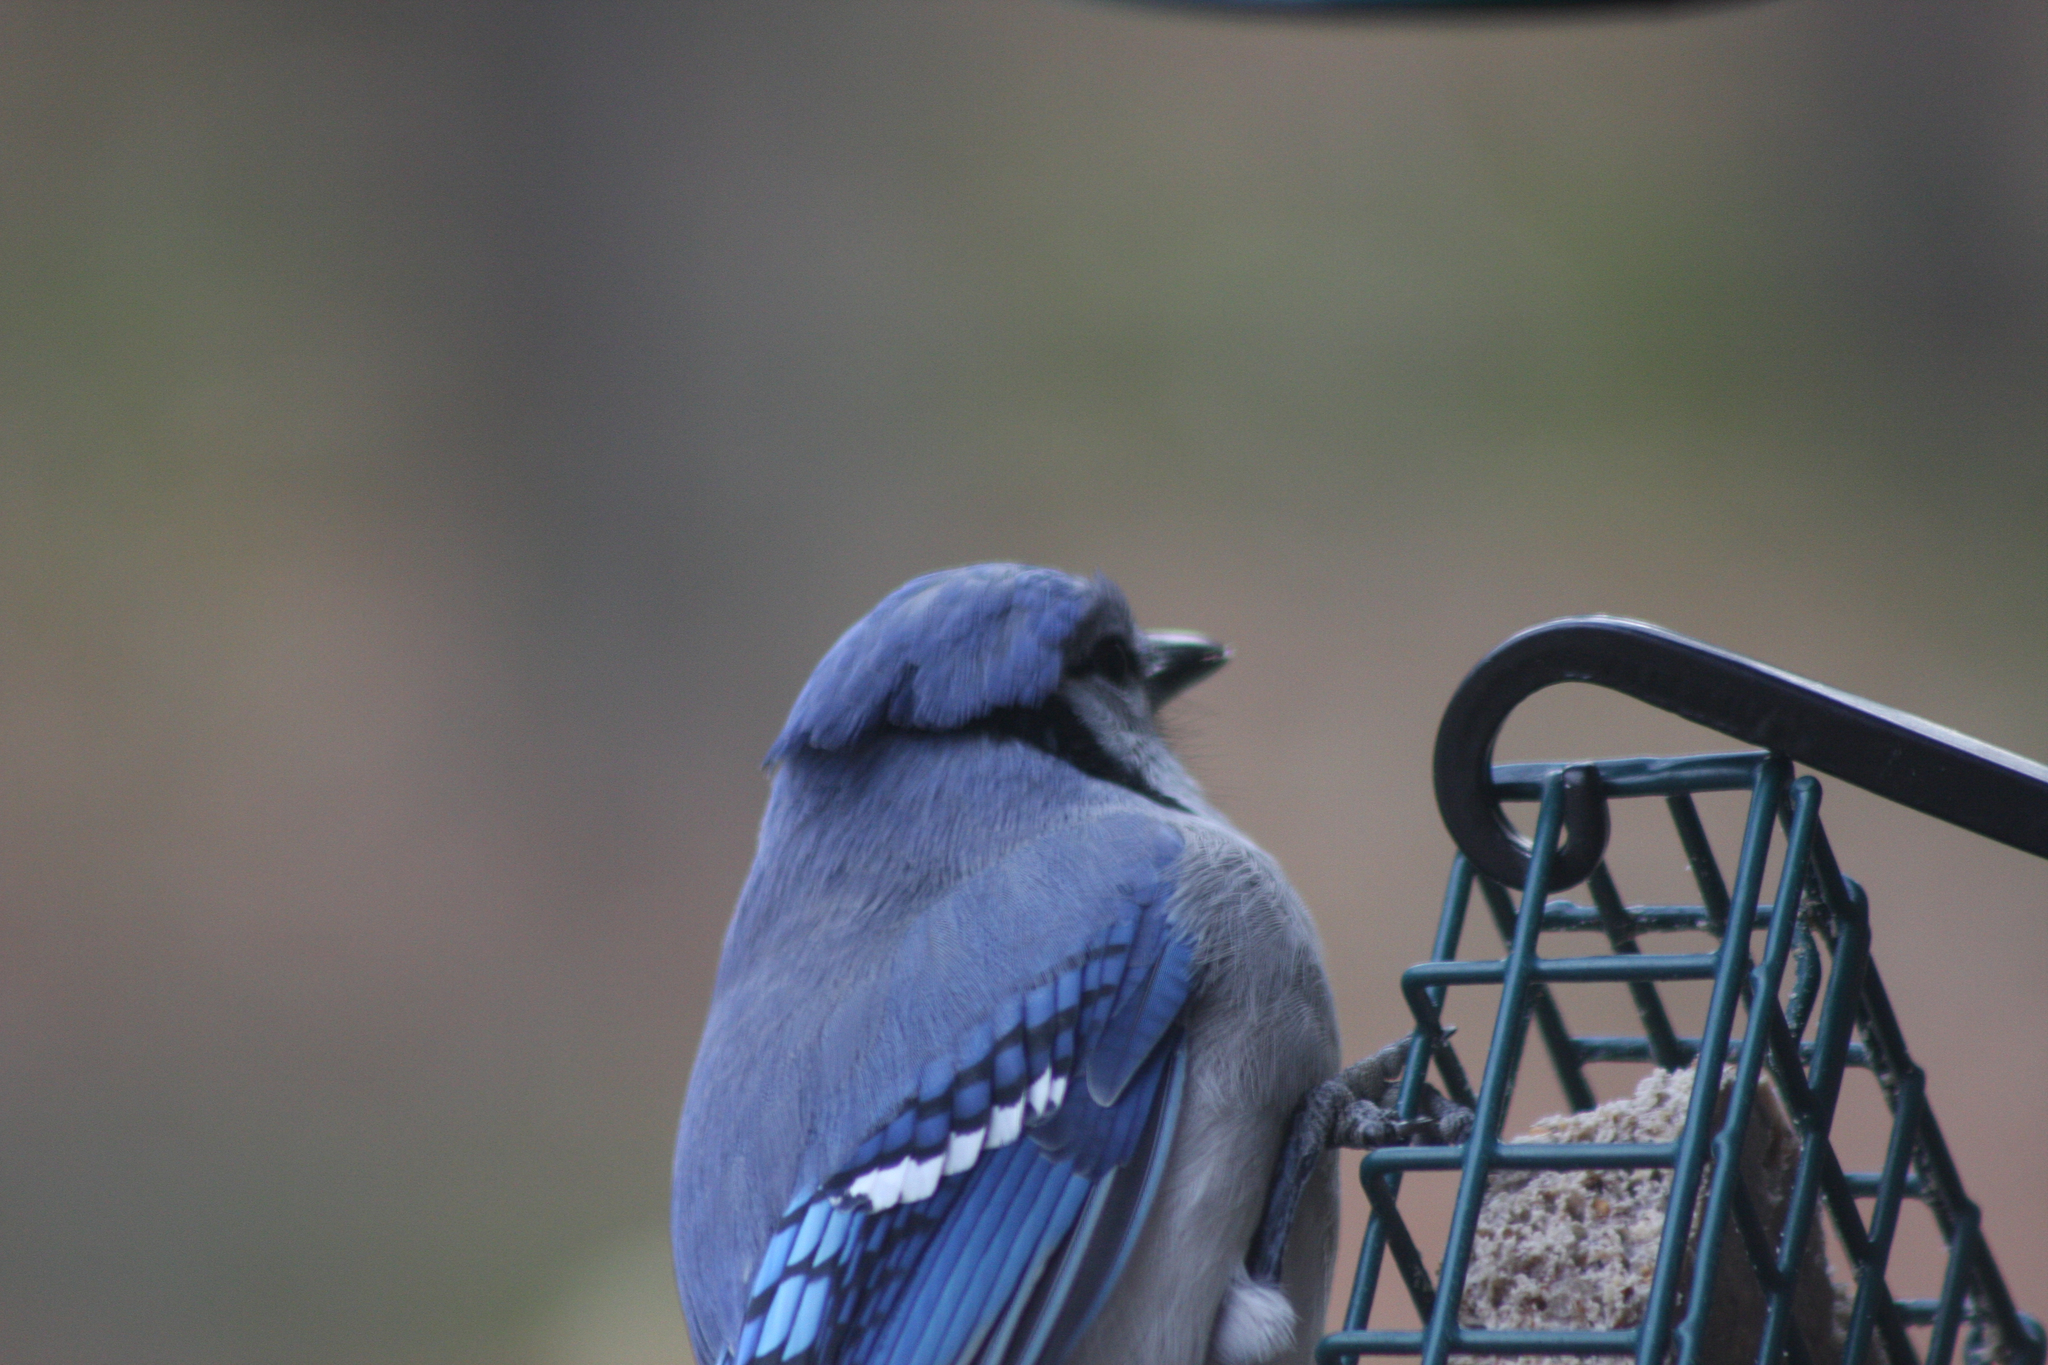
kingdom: Animalia
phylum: Chordata
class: Aves
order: Passeriformes
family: Corvidae
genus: Cyanocitta
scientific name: Cyanocitta cristata
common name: Blue jay
